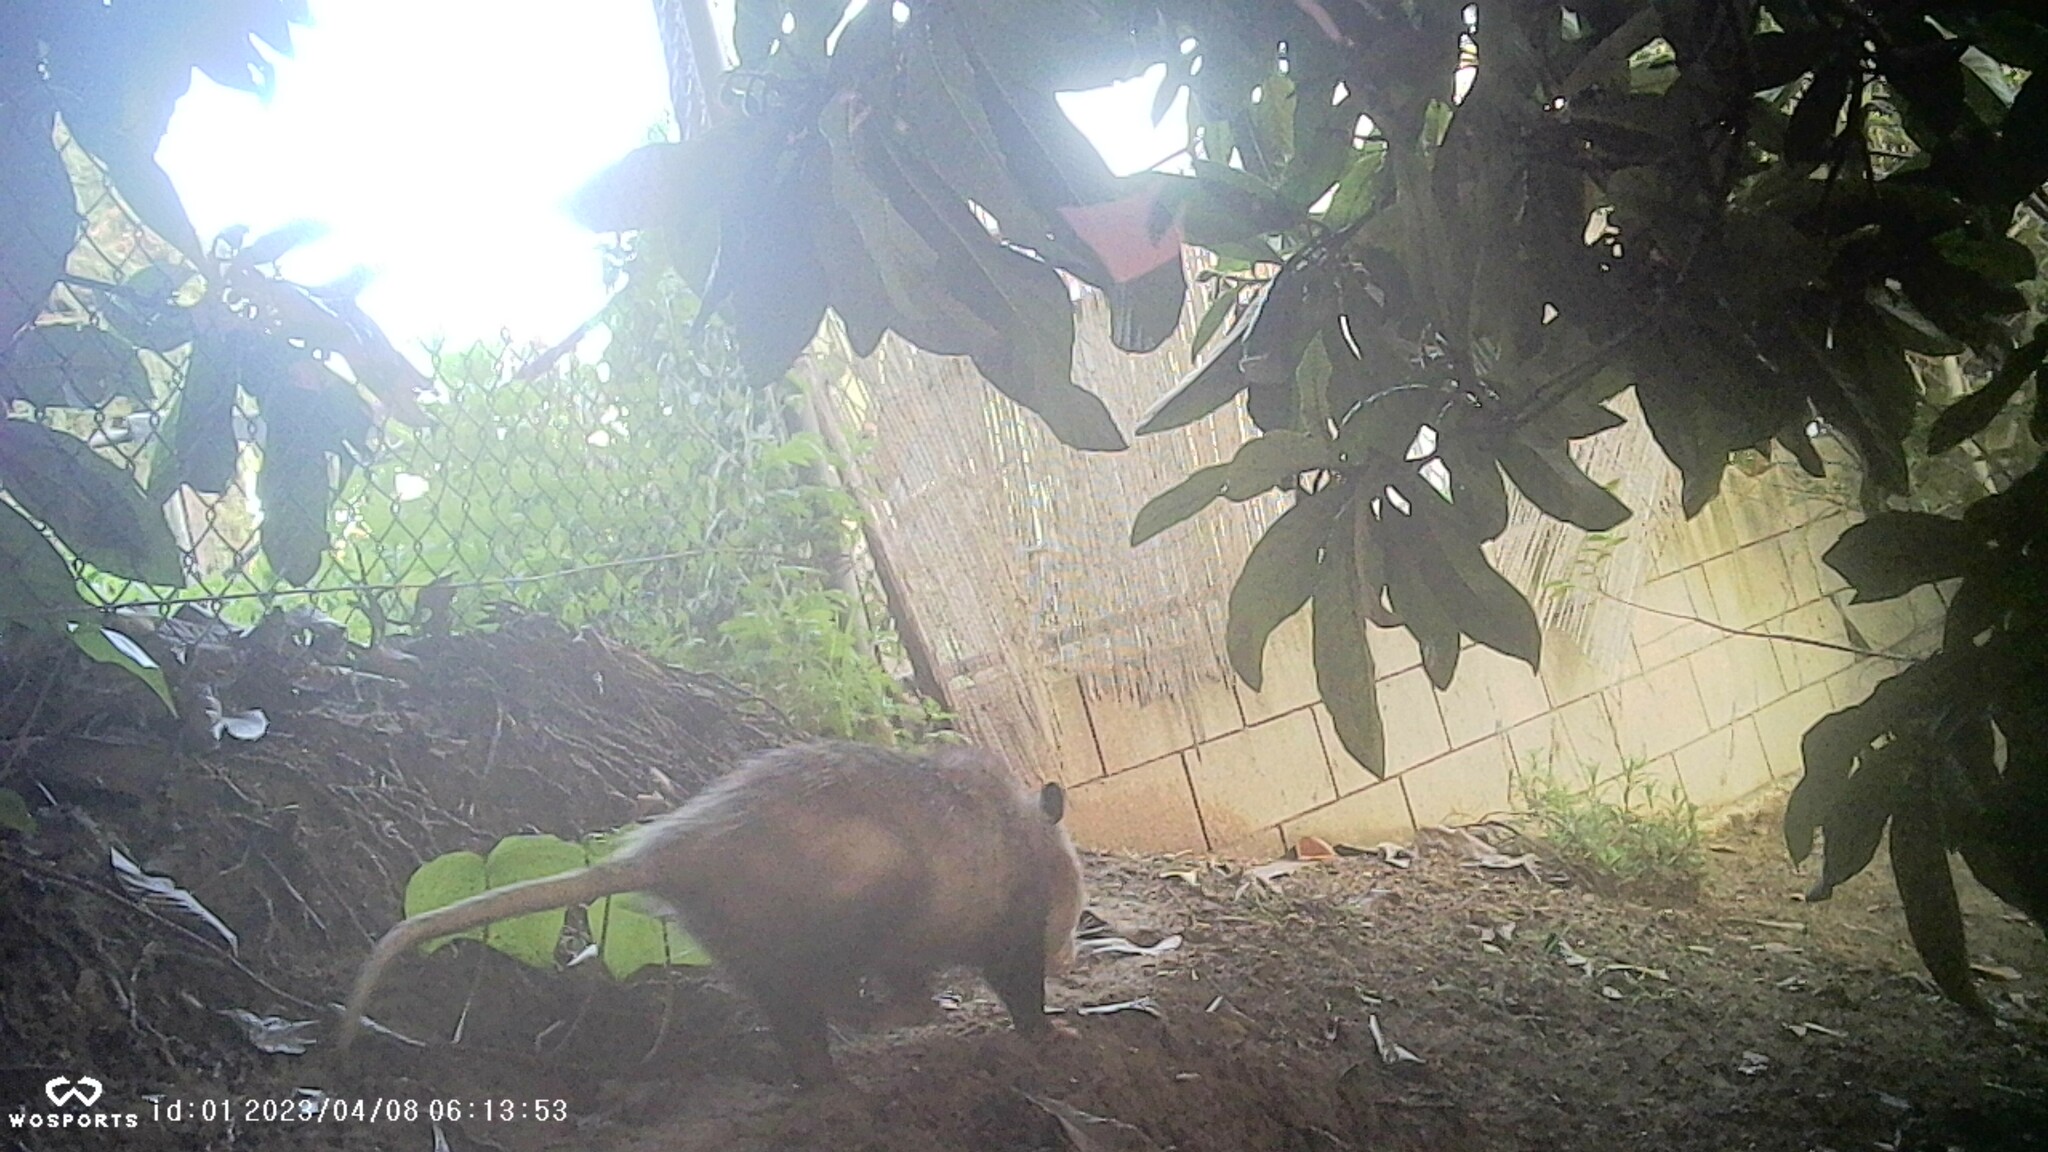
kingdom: Animalia
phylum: Chordata
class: Mammalia
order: Didelphimorphia
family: Didelphidae
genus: Didelphis
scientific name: Didelphis virginiana
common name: Virginia opossum
